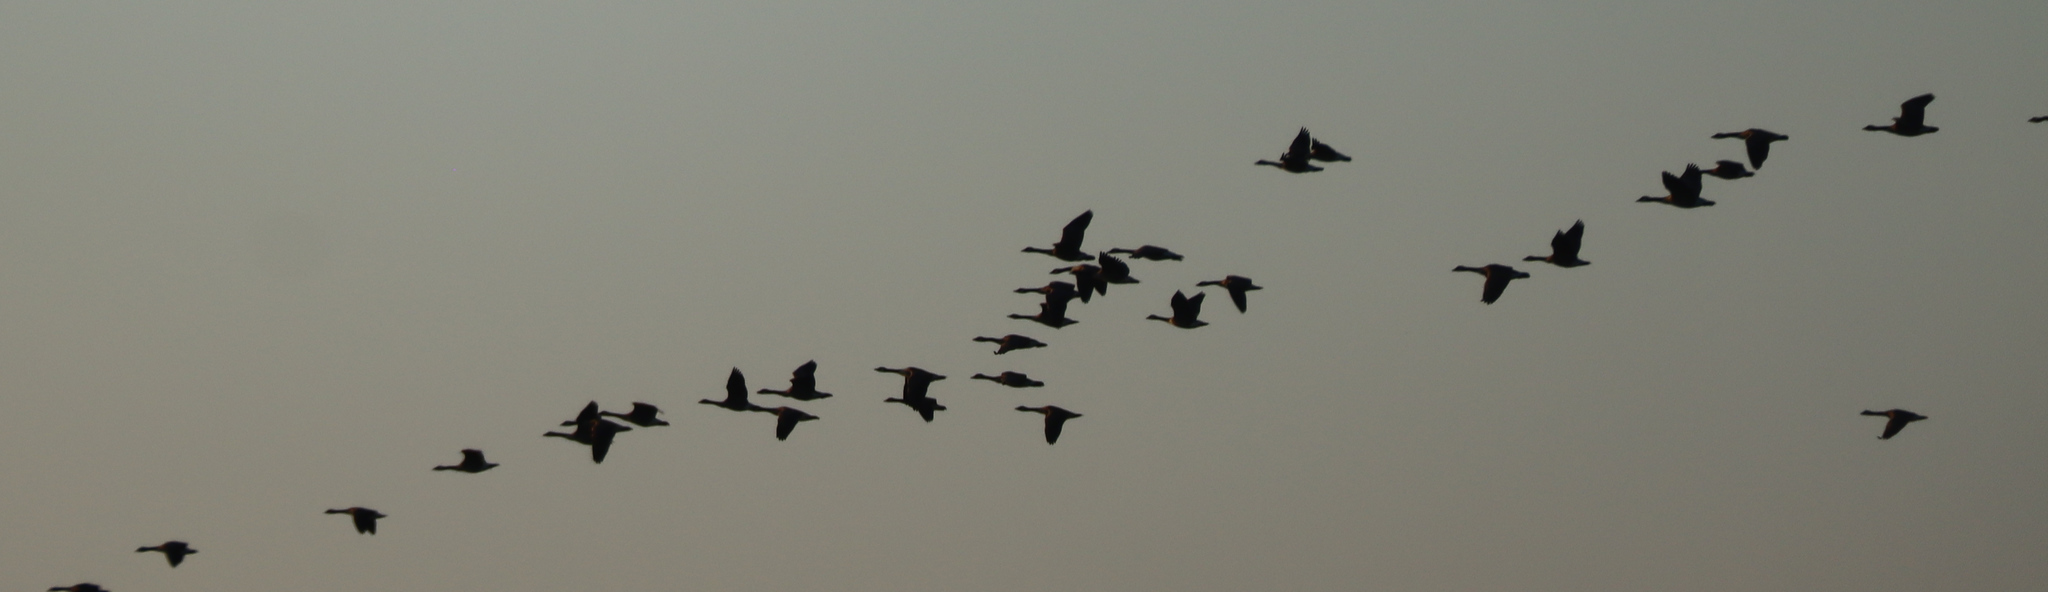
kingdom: Animalia
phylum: Chordata
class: Aves
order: Anseriformes
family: Anatidae
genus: Branta
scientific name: Branta canadensis
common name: Canada goose
